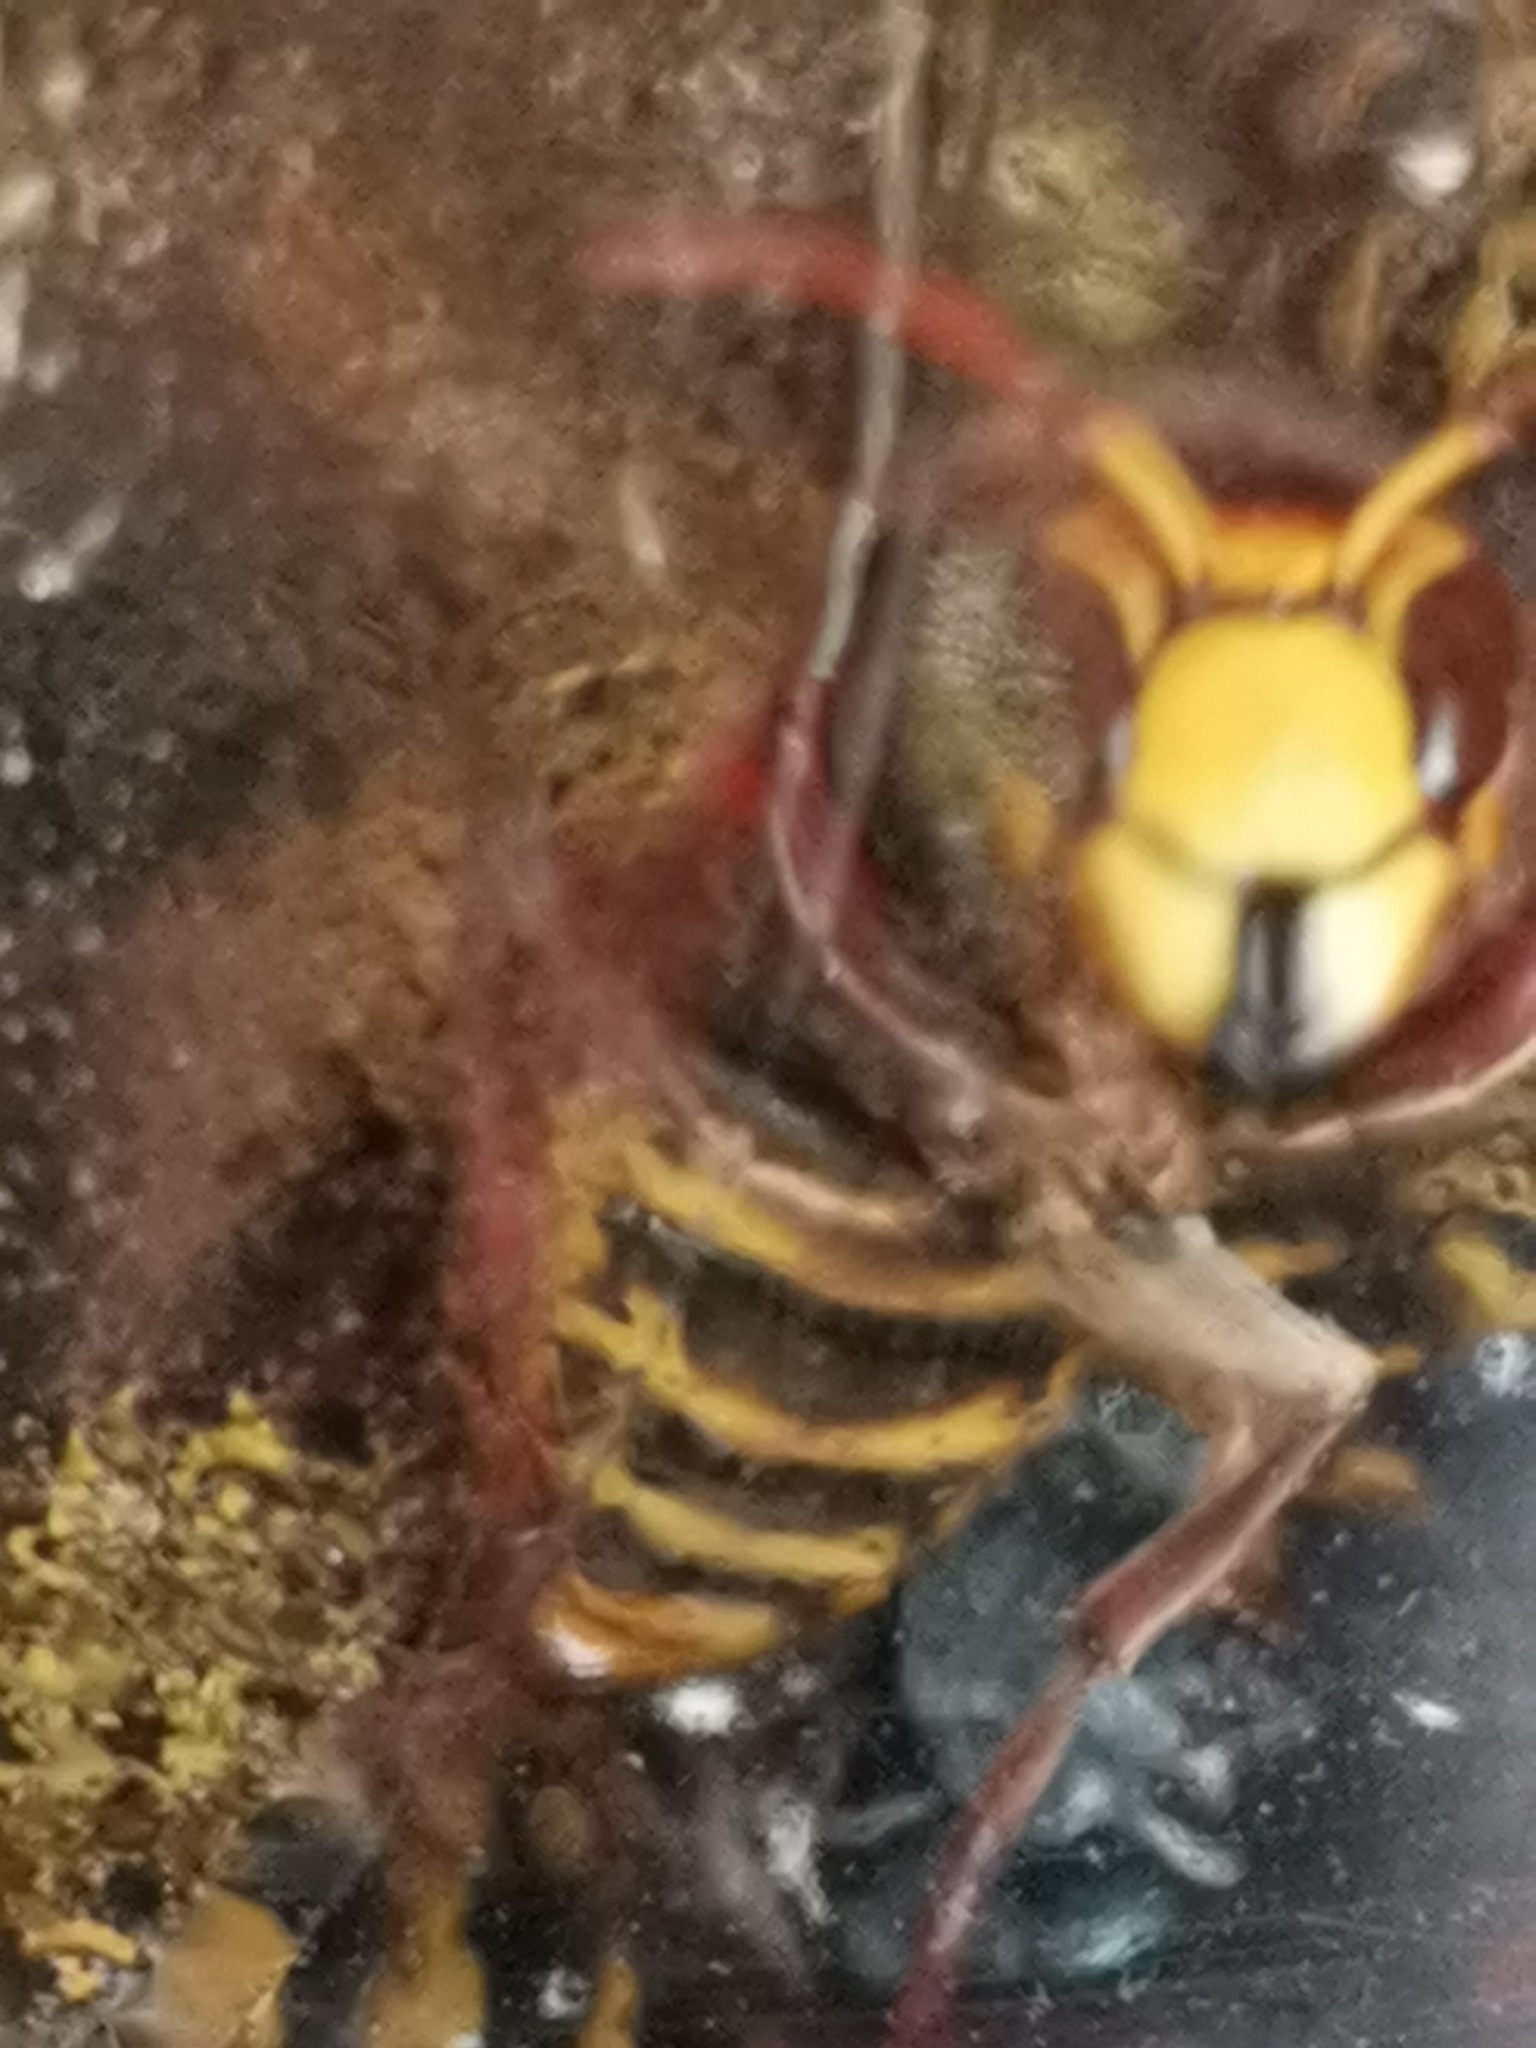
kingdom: Animalia
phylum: Arthropoda
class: Insecta
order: Hymenoptera
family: Vespidae
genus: Vespa
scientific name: Vespa crabro
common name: Hornet
